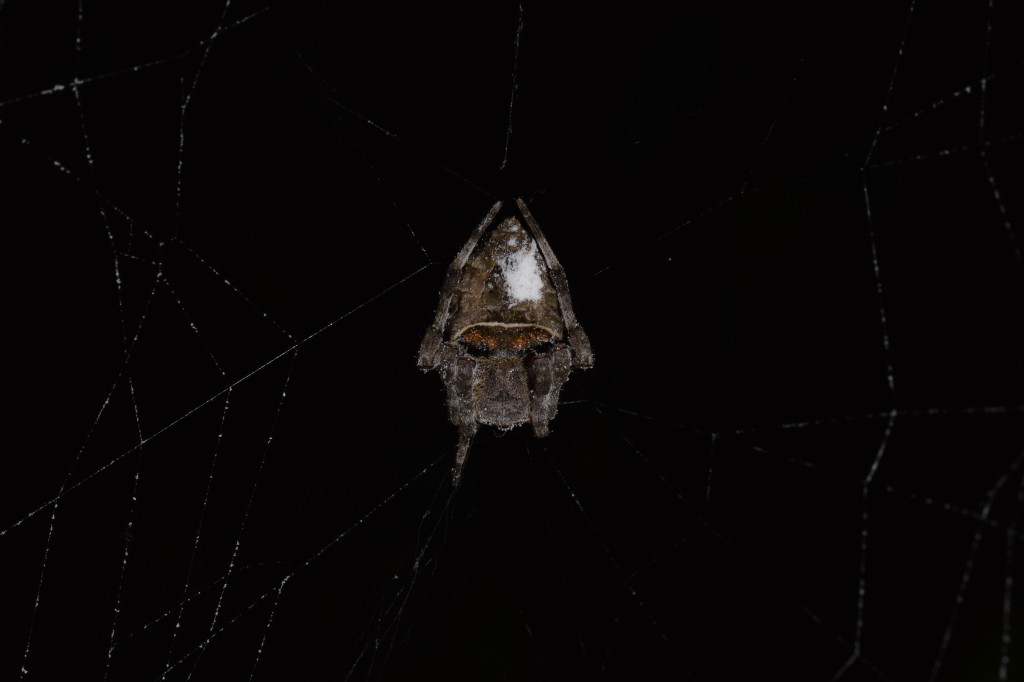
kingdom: Animalia
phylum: Arthropoda
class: Arachnida
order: Araneae
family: Araneidae
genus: Parawixia
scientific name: Parawixia dehaani
